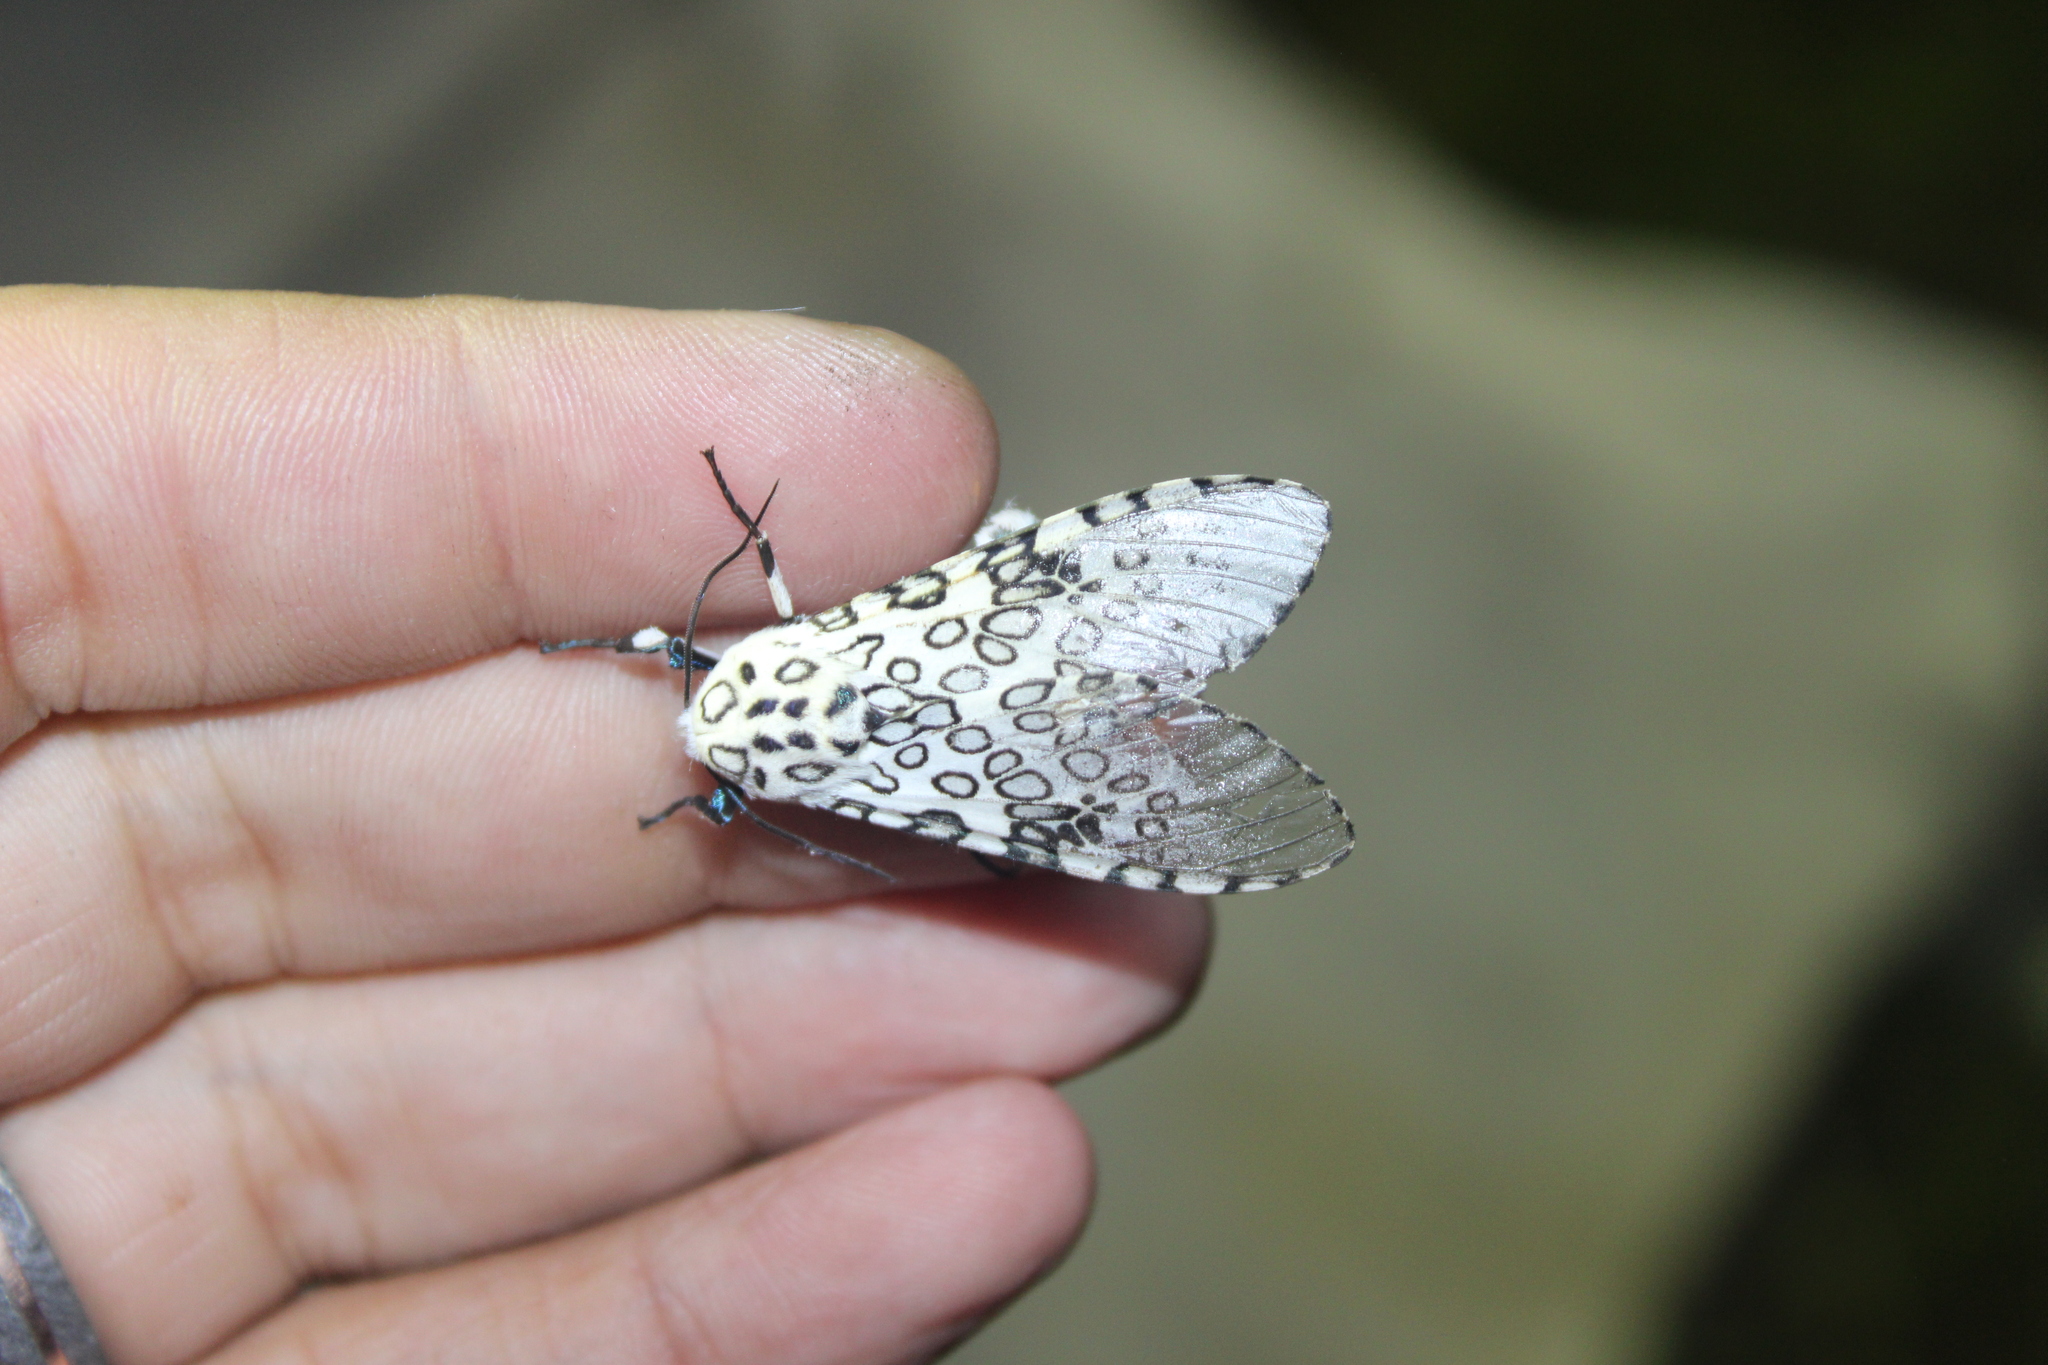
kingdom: Animalia
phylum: Arthropoda
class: Insecta
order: Lepidoptera
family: Erebidae
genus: Hypercompe
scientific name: Hypercompe scribonia
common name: Giant leopard moth
